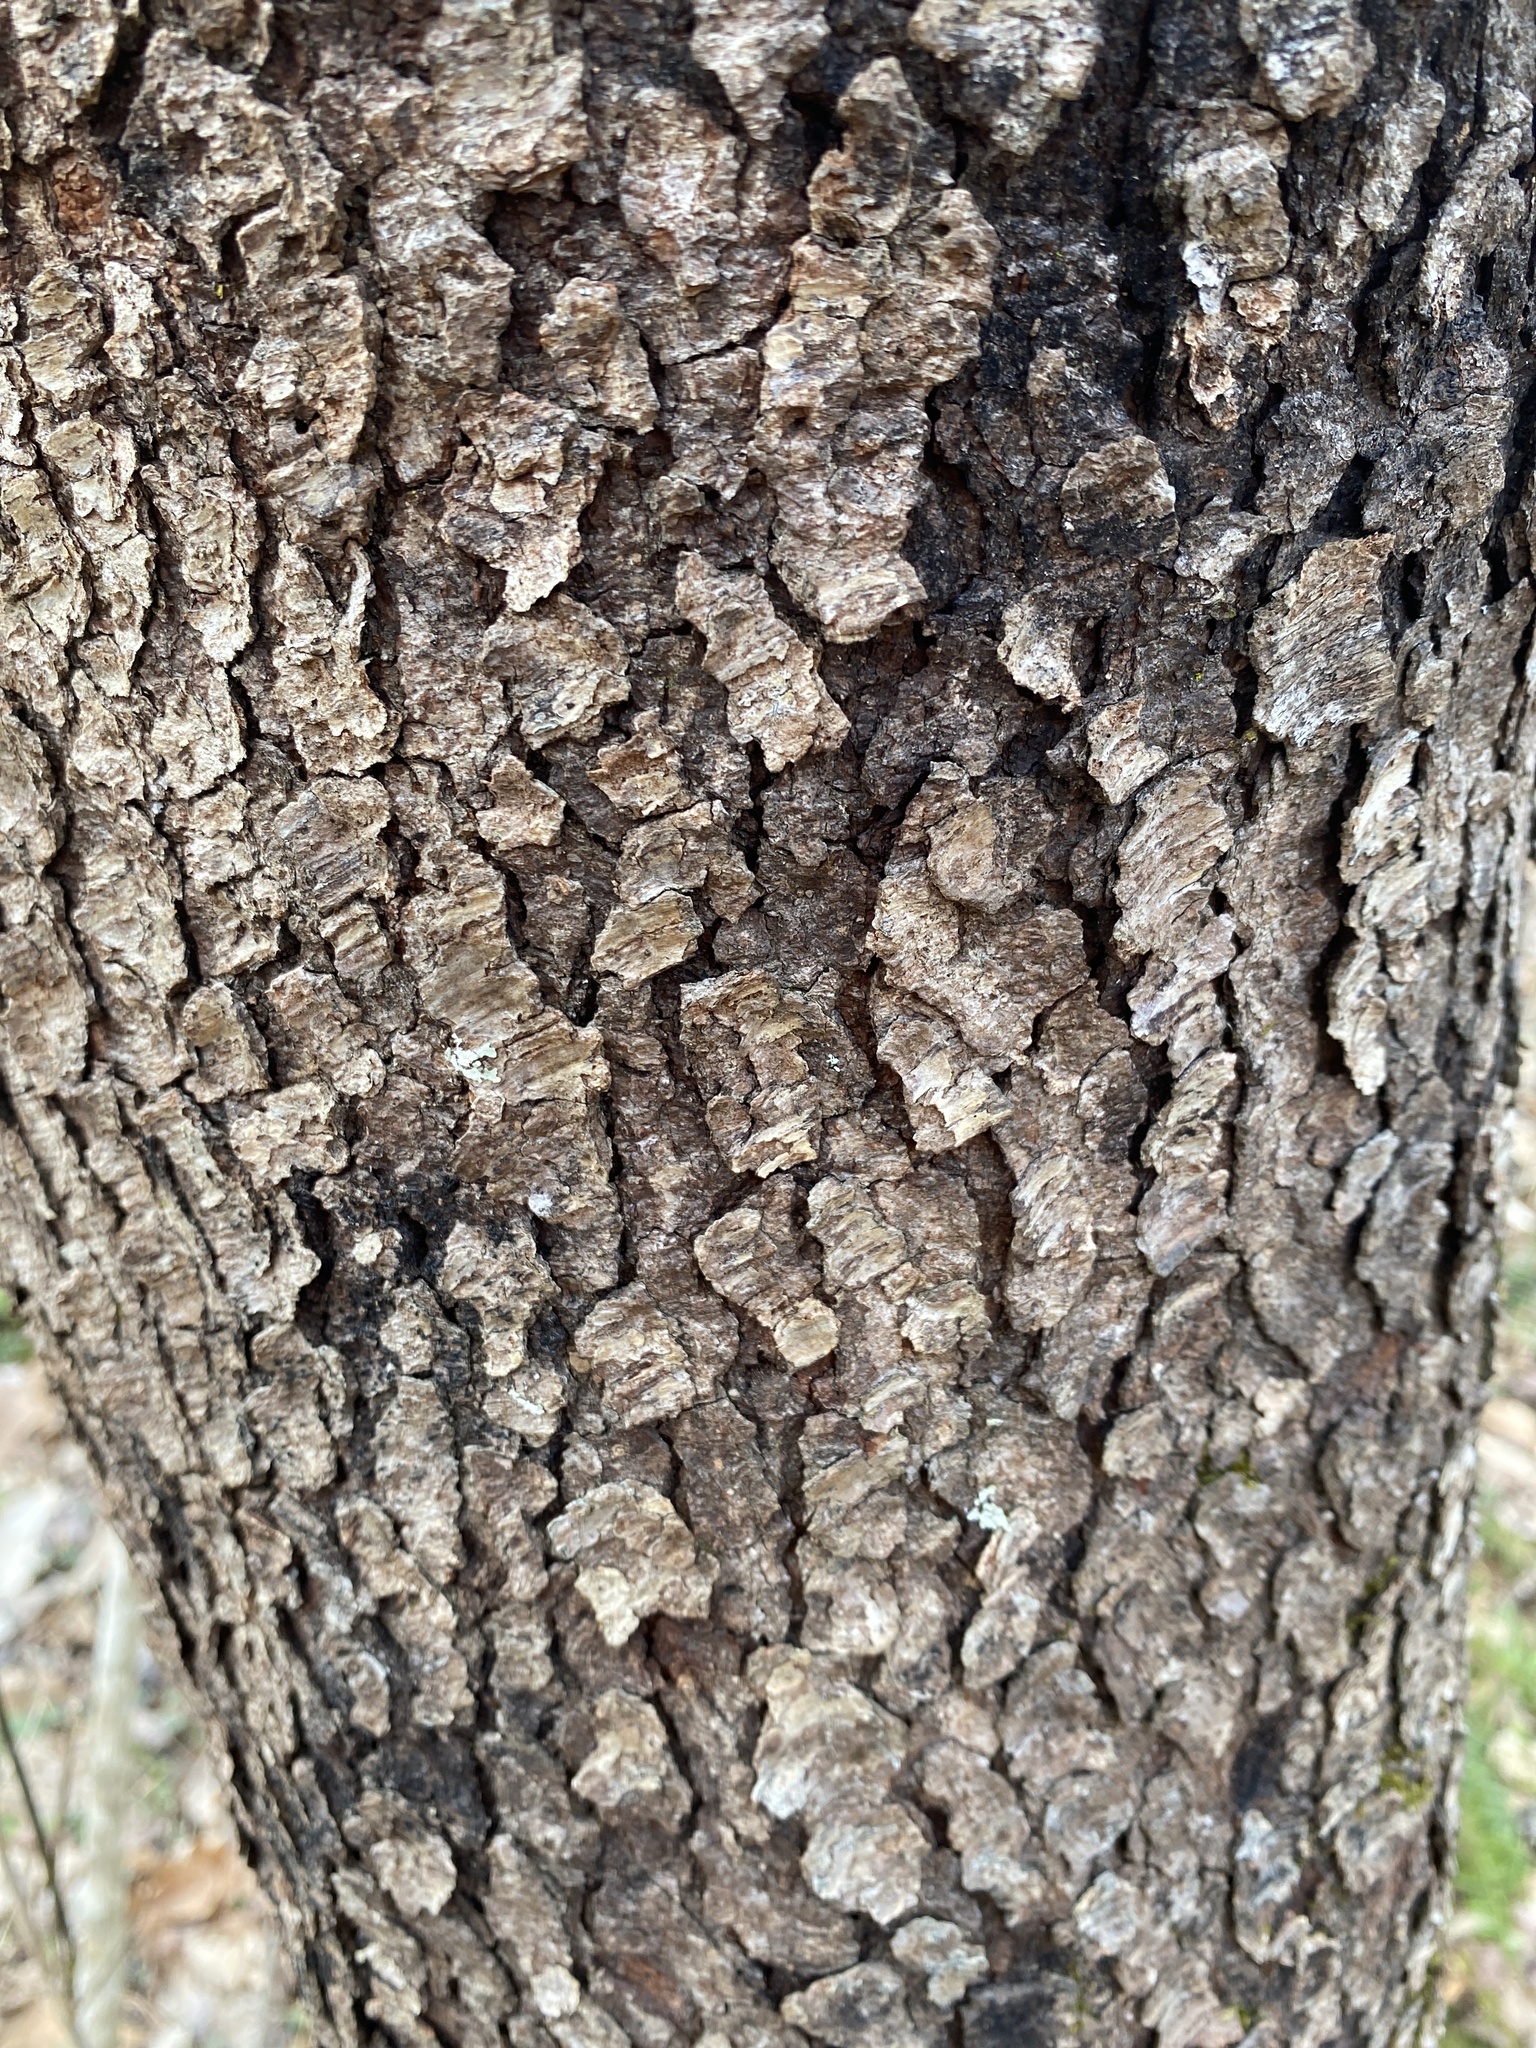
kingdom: Plantae
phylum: Tracheophyta
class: Magnoliopsida
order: Rosales
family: Rosaceae
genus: Prunus
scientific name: Prunus serotina
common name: Black cherry
